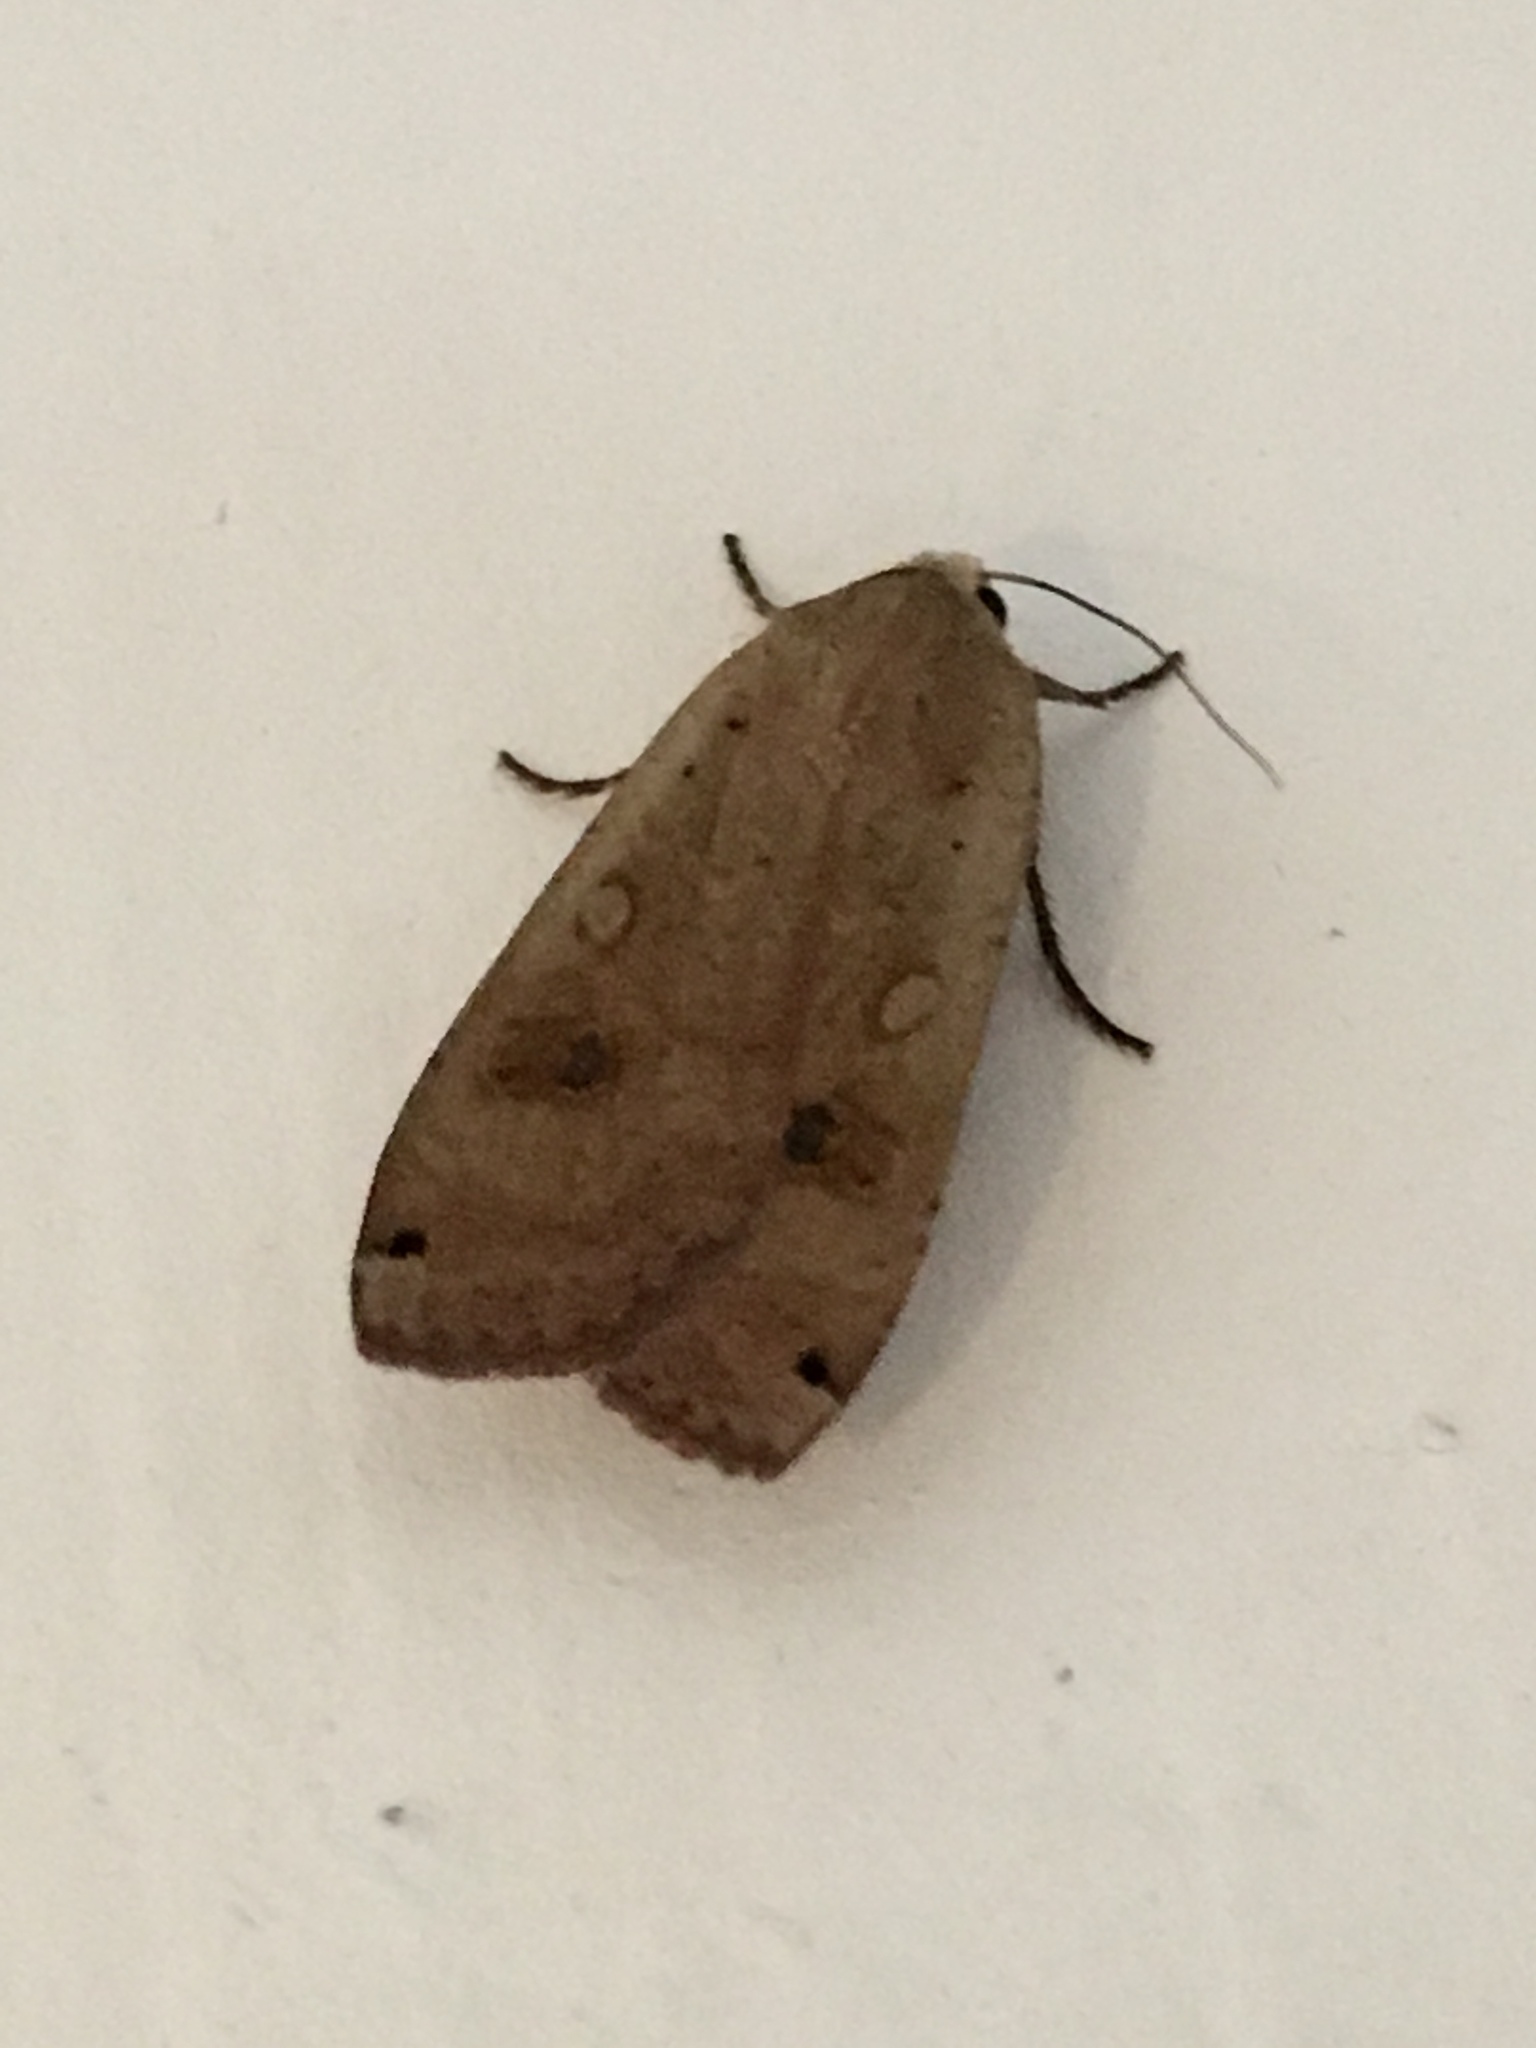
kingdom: Animalia
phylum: Arthropoda
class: Insecta
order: Lepidoptera
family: Noctuidae
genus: Noctua
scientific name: Noctua pronuba
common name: Large yellow underwing
